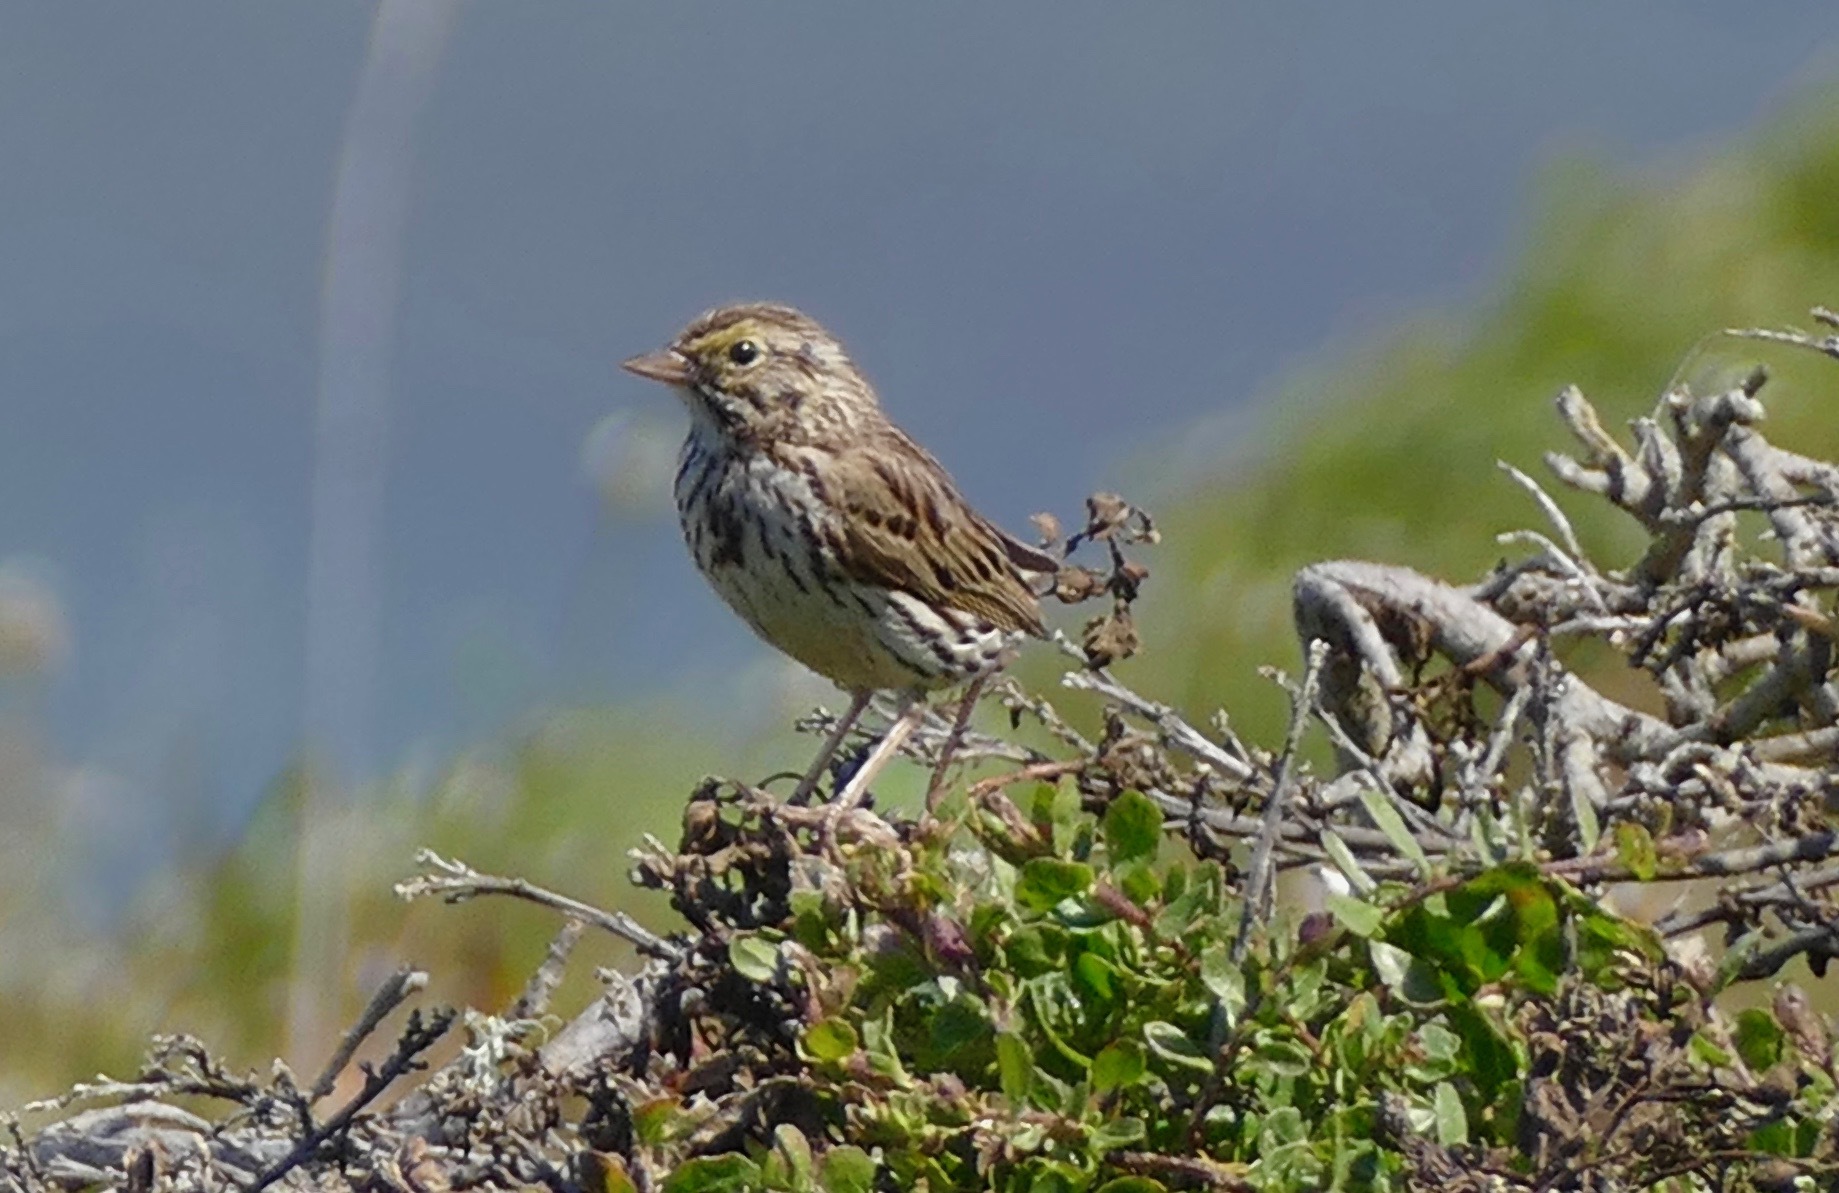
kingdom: Animalia
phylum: Chordata
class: Aves
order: Passeriformes
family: Passerellidae
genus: Passerculus
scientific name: Passerculus sandwichensis
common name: Savannah sparrow
